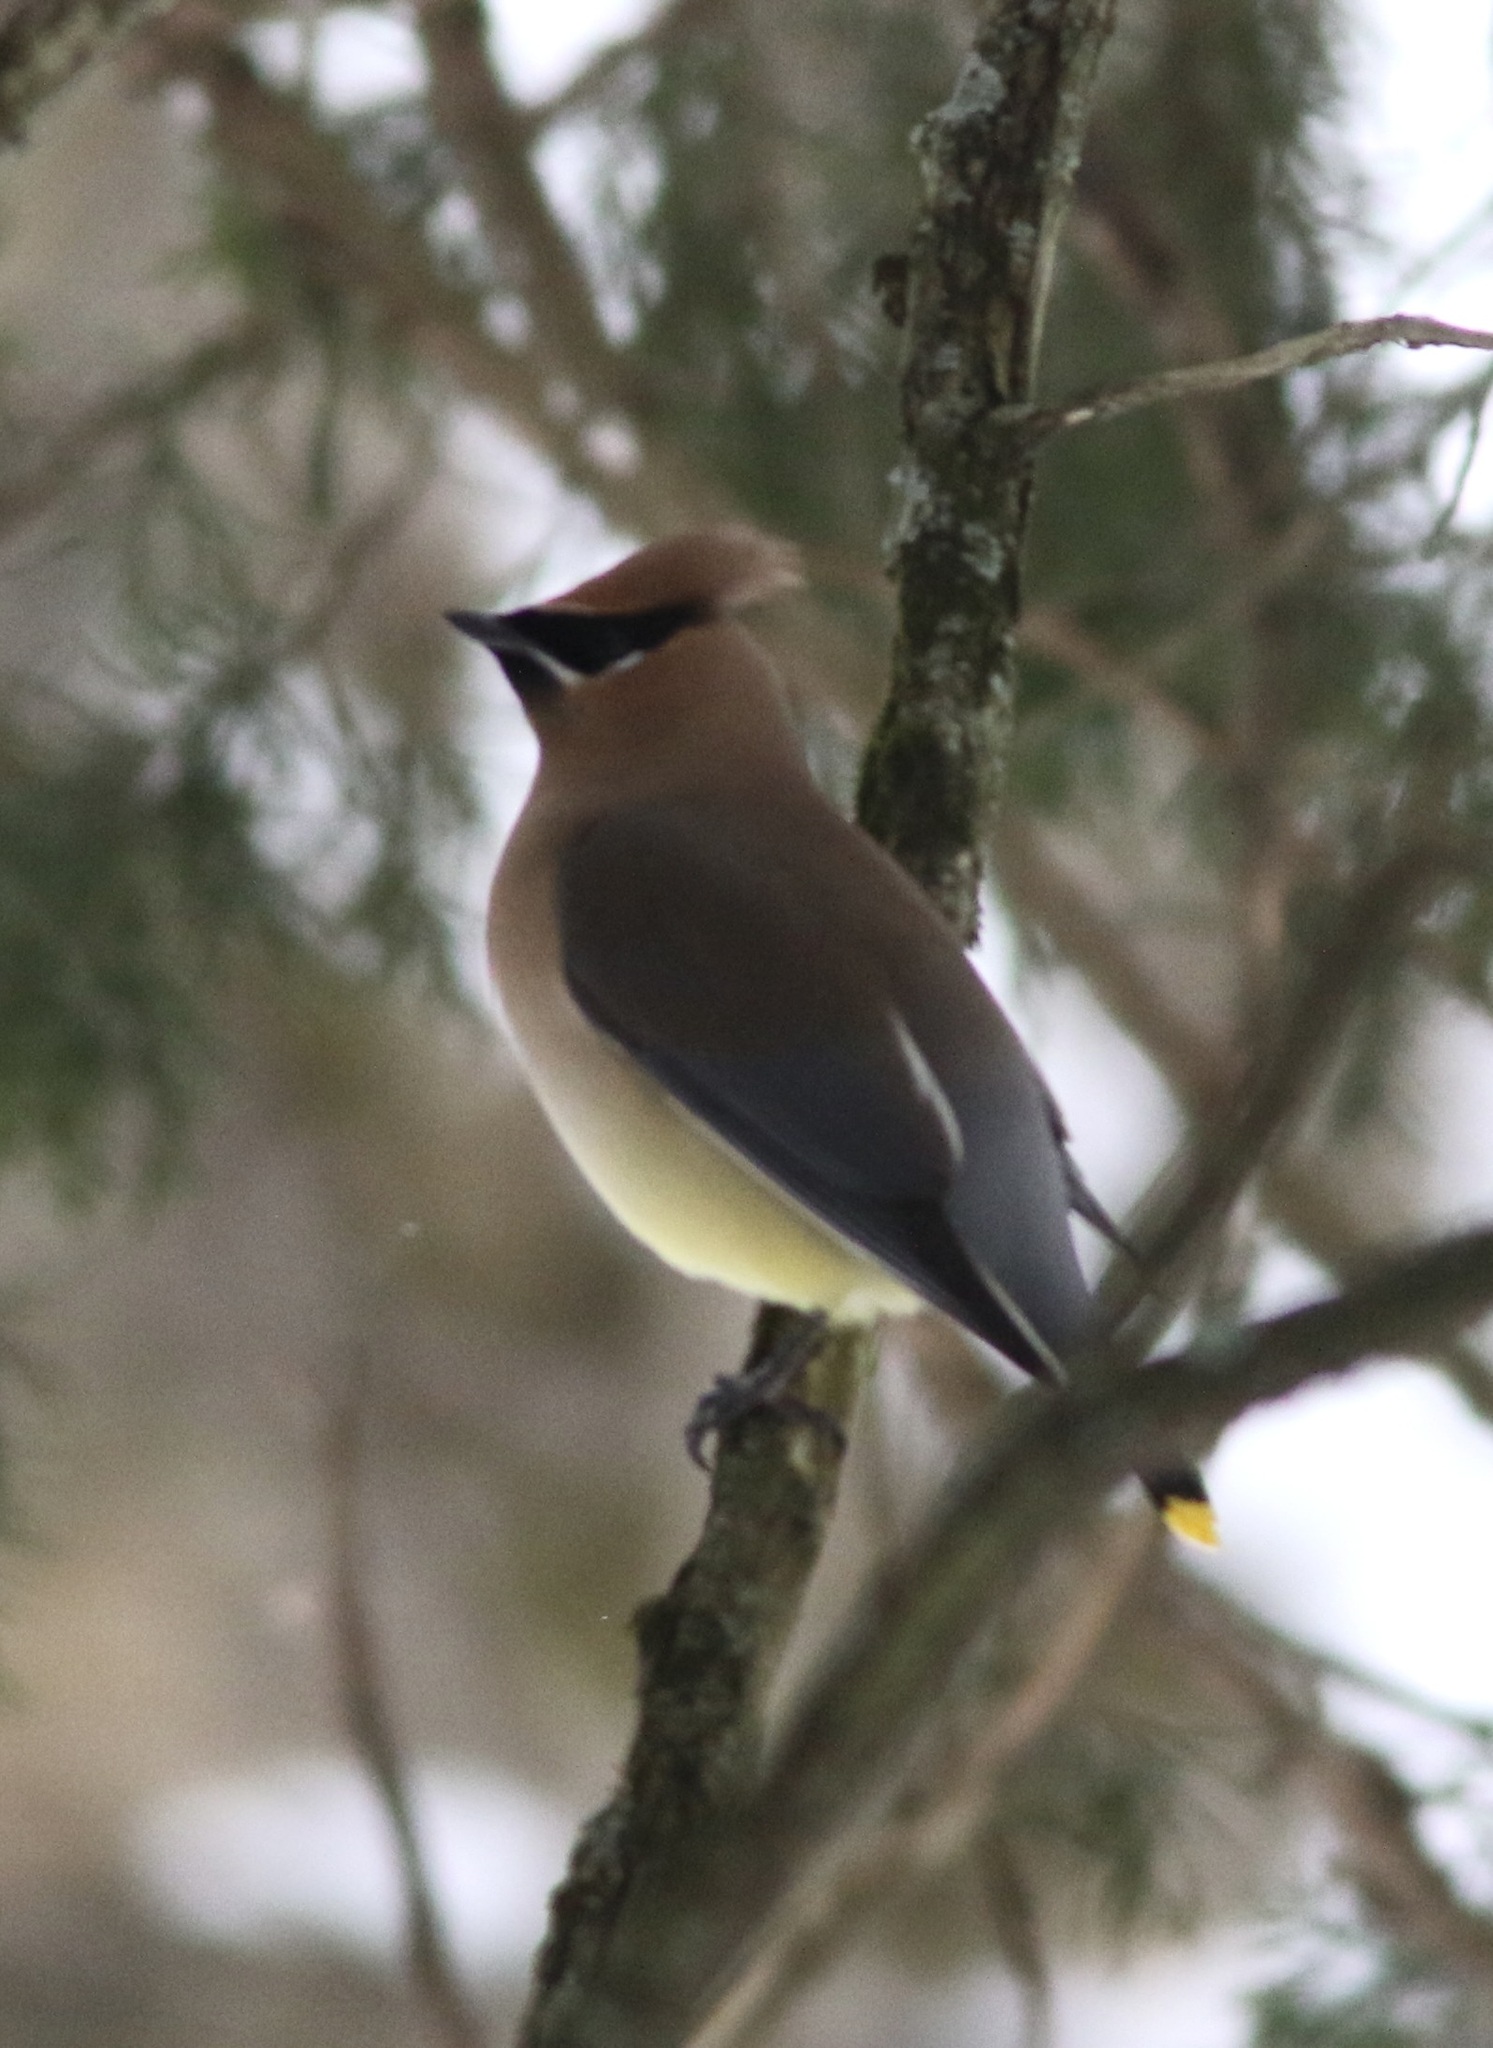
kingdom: Animalia
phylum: Chordata
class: Aves
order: Passeriformes
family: Bombycillidae
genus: Bombycilla
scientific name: Bombycilla cedrorum
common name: Cedar waxwing
